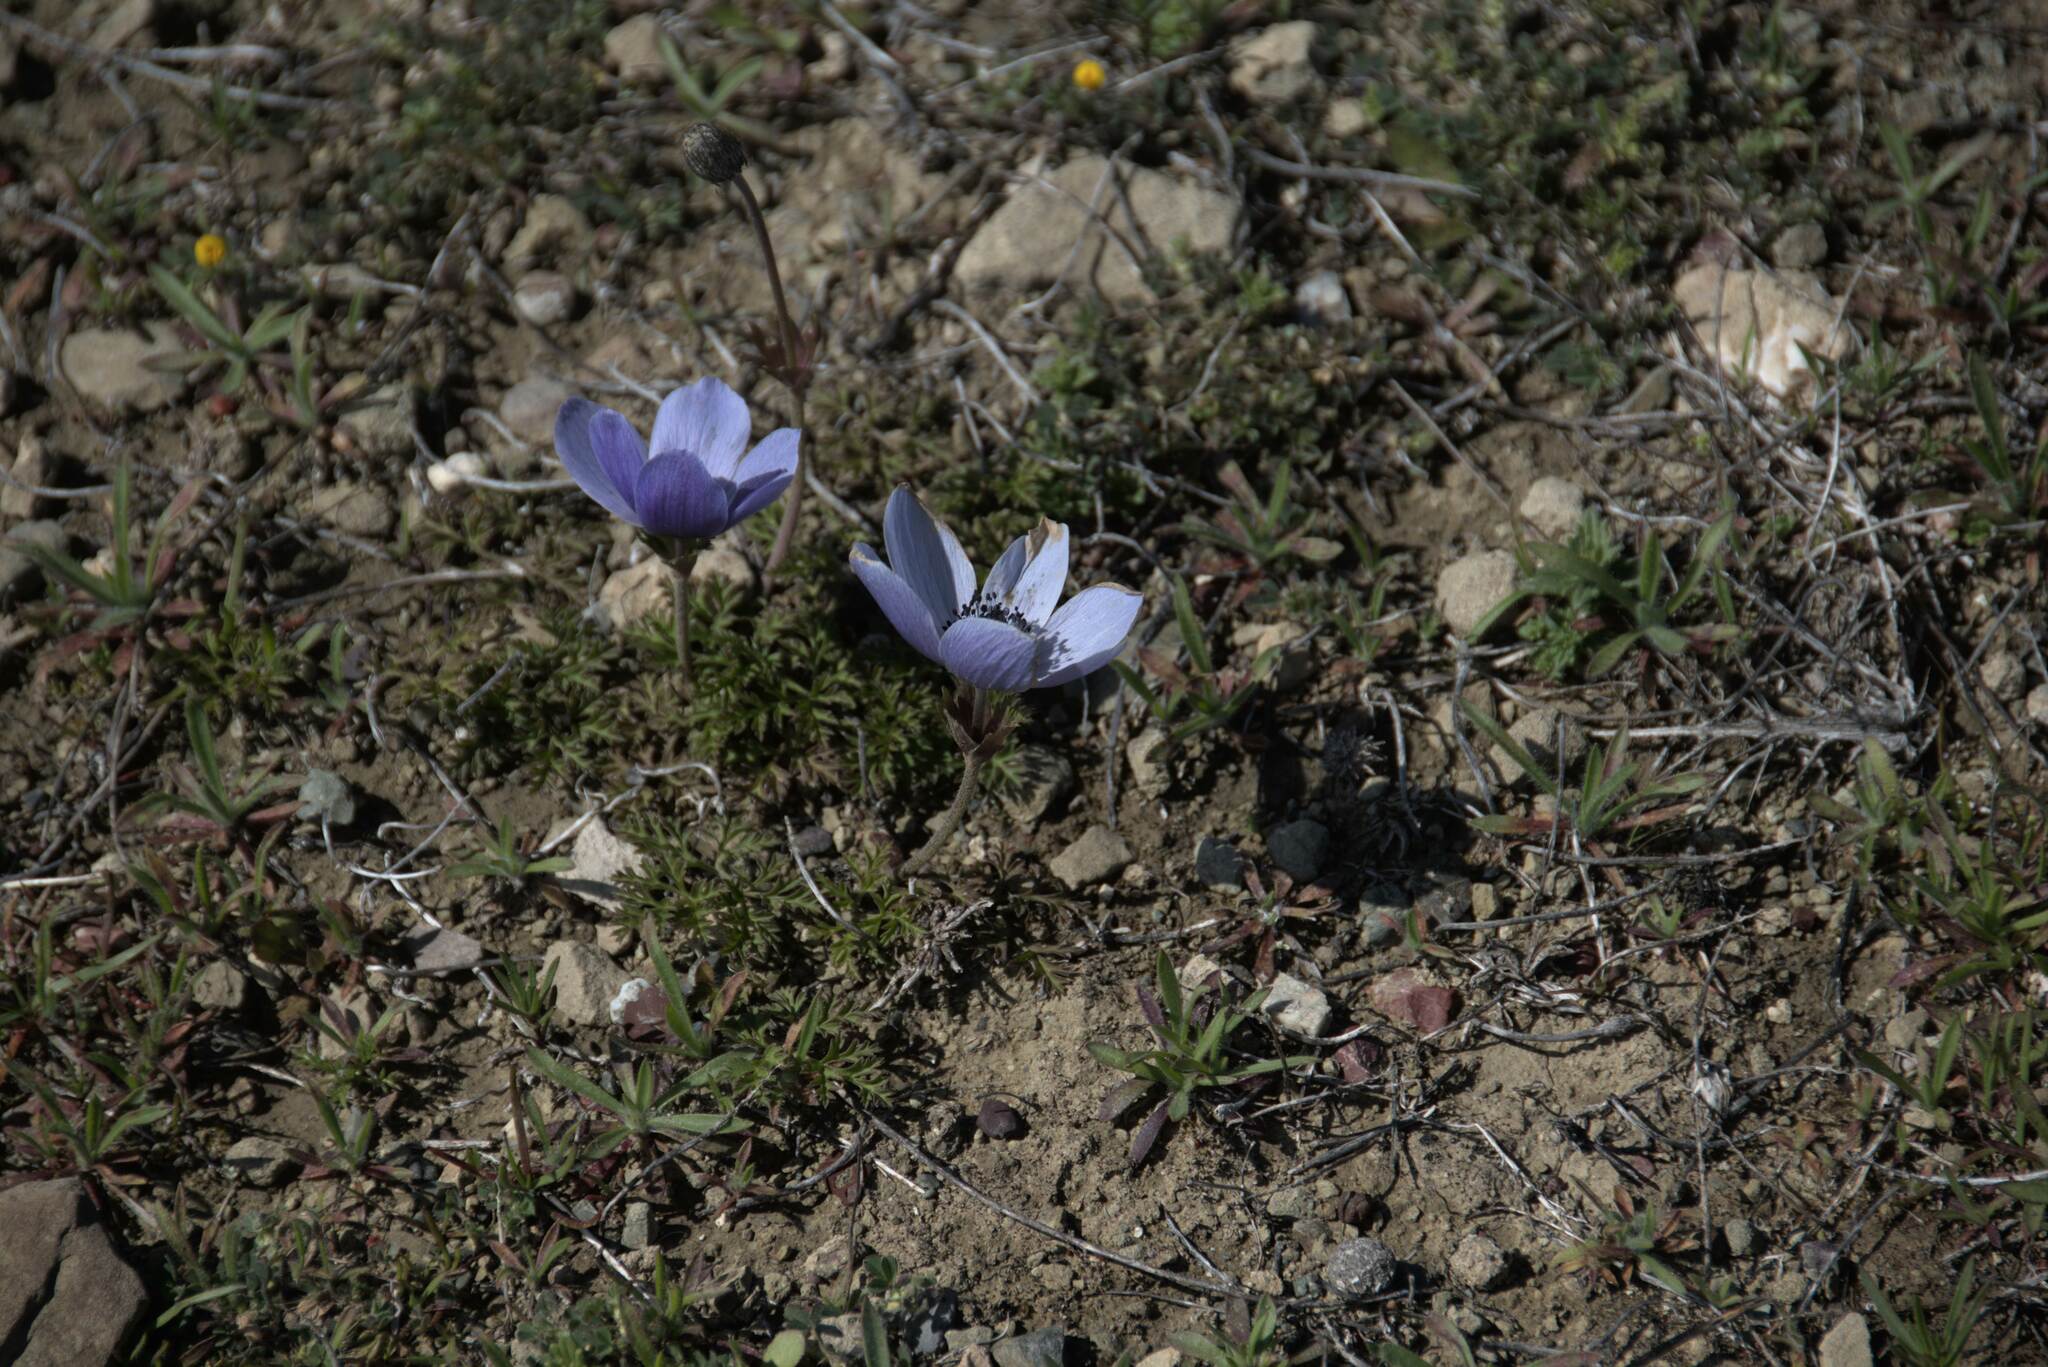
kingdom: Plantae
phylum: Tracheophyta
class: Magnoliopsida
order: Ranunculales
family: Ranunculaceae
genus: Anemone
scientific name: Anemone coronaria
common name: Poppy anemone
